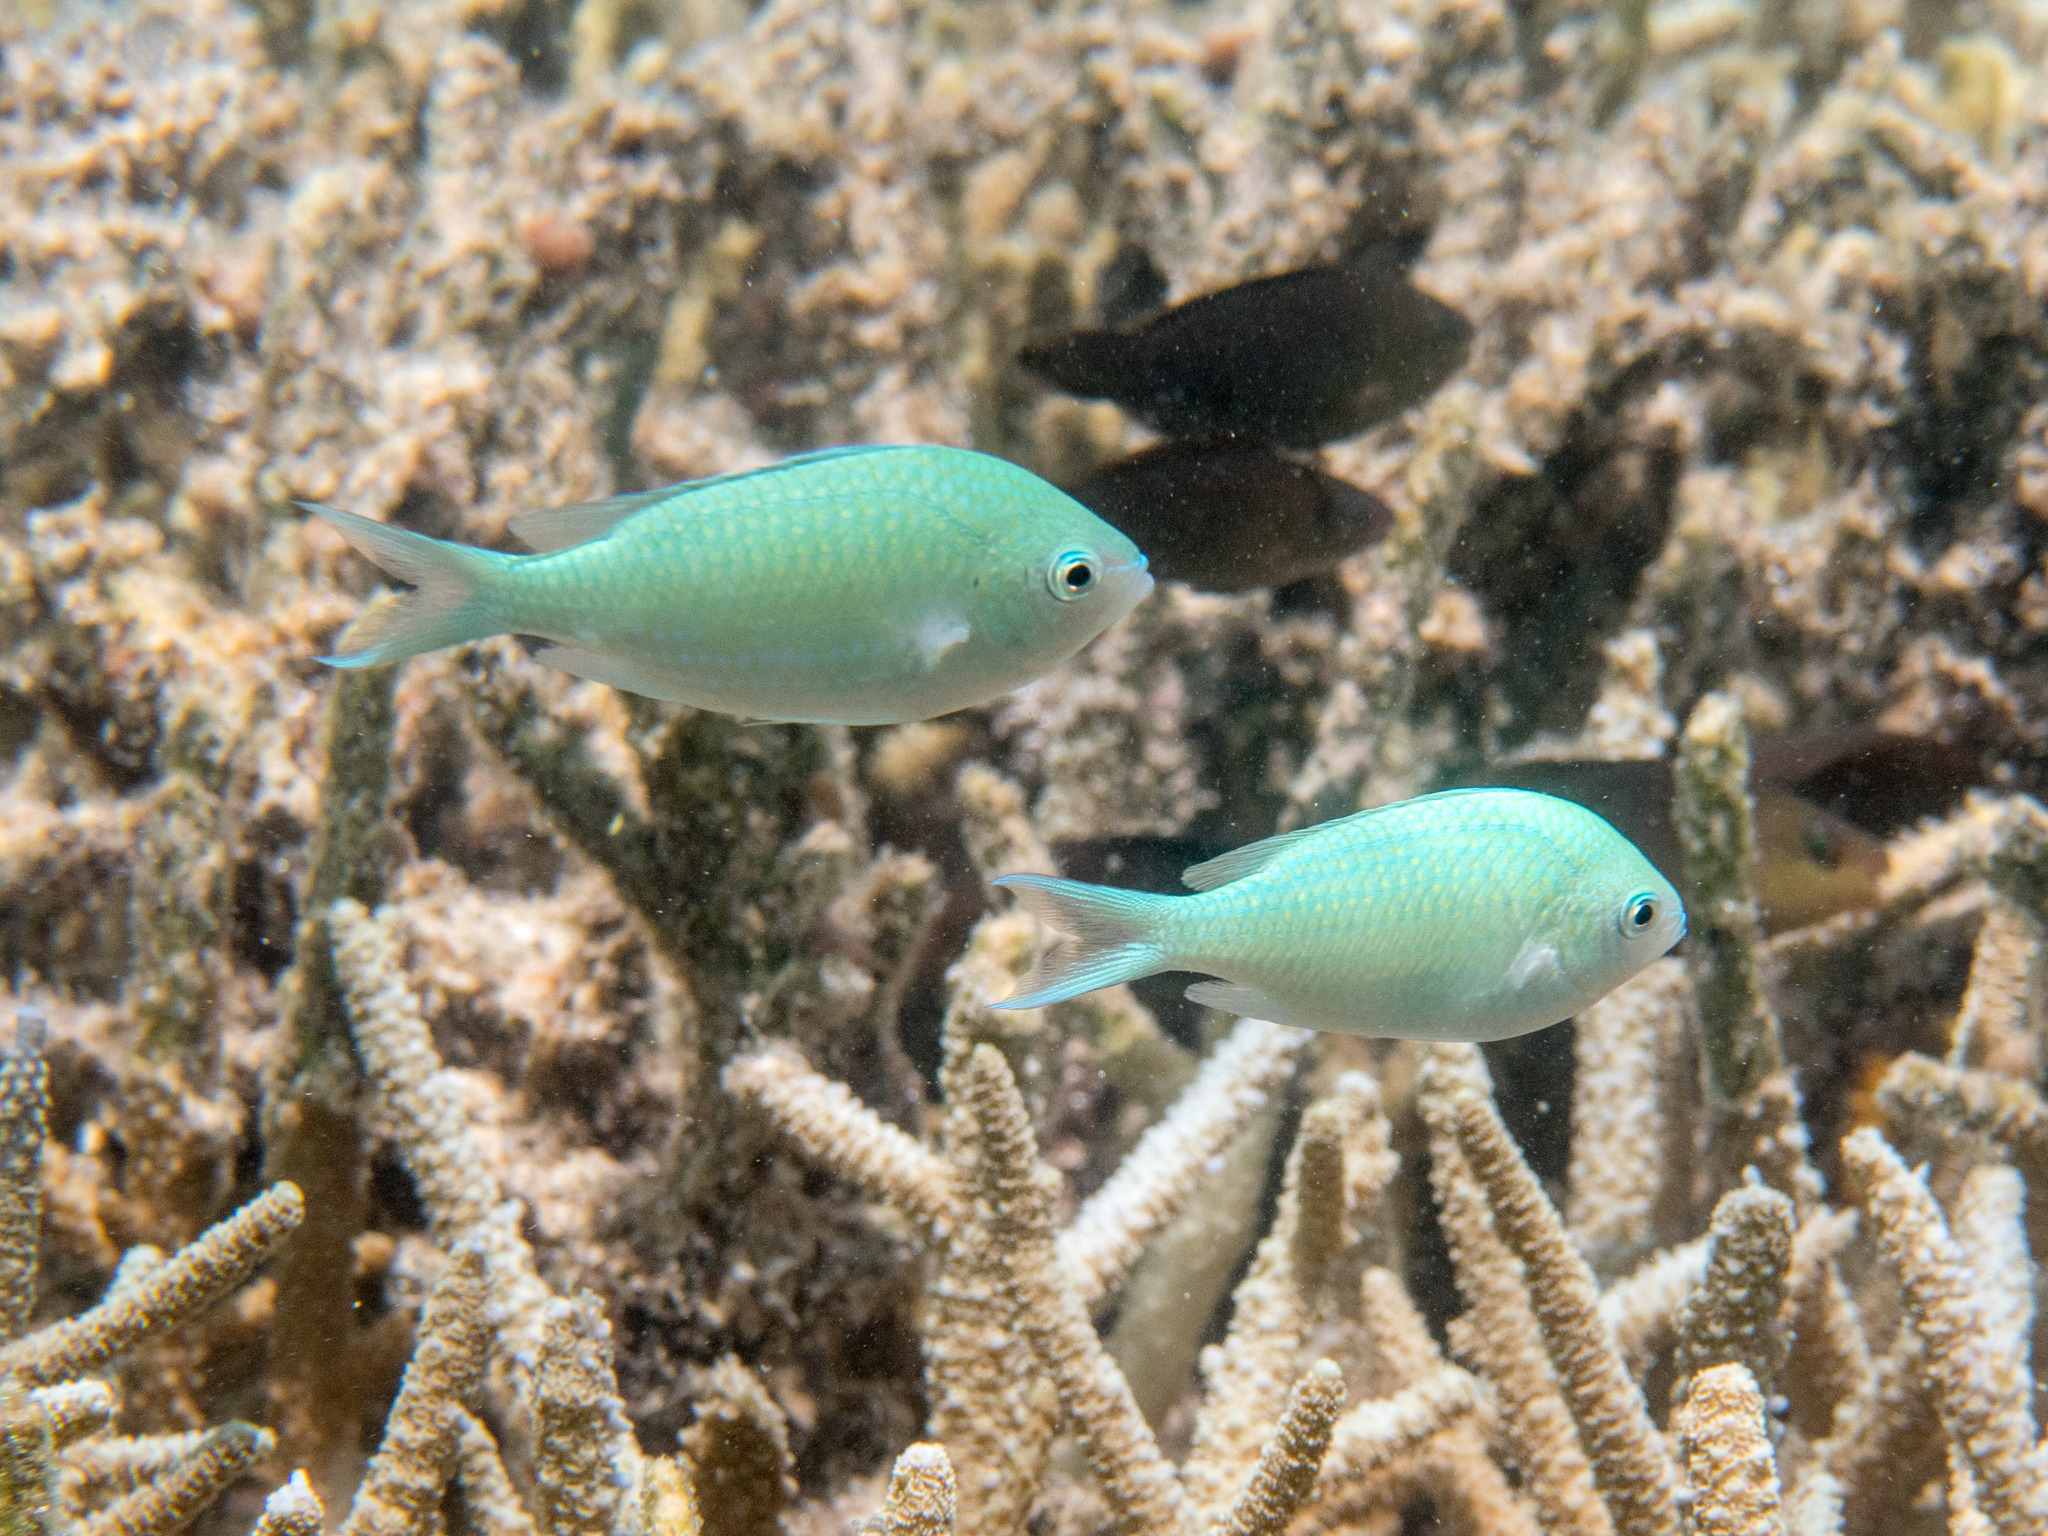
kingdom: Animalia
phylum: Chordata
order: Perciformes
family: Pomacentridae
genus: Chromis
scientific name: Chromis viridis
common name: Blue-green chromis
